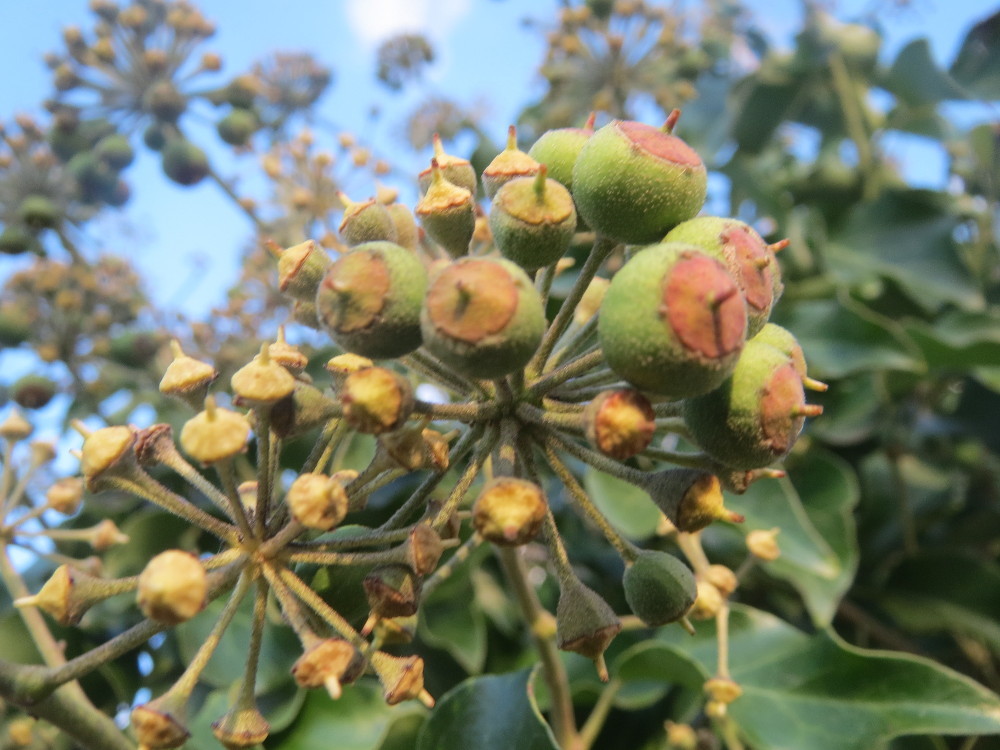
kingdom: Plantae
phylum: Tracheophyta
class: Magnoliopsida
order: Apiales
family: Araliaceae
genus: Hedera
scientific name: Hedera helix
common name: Ivy
